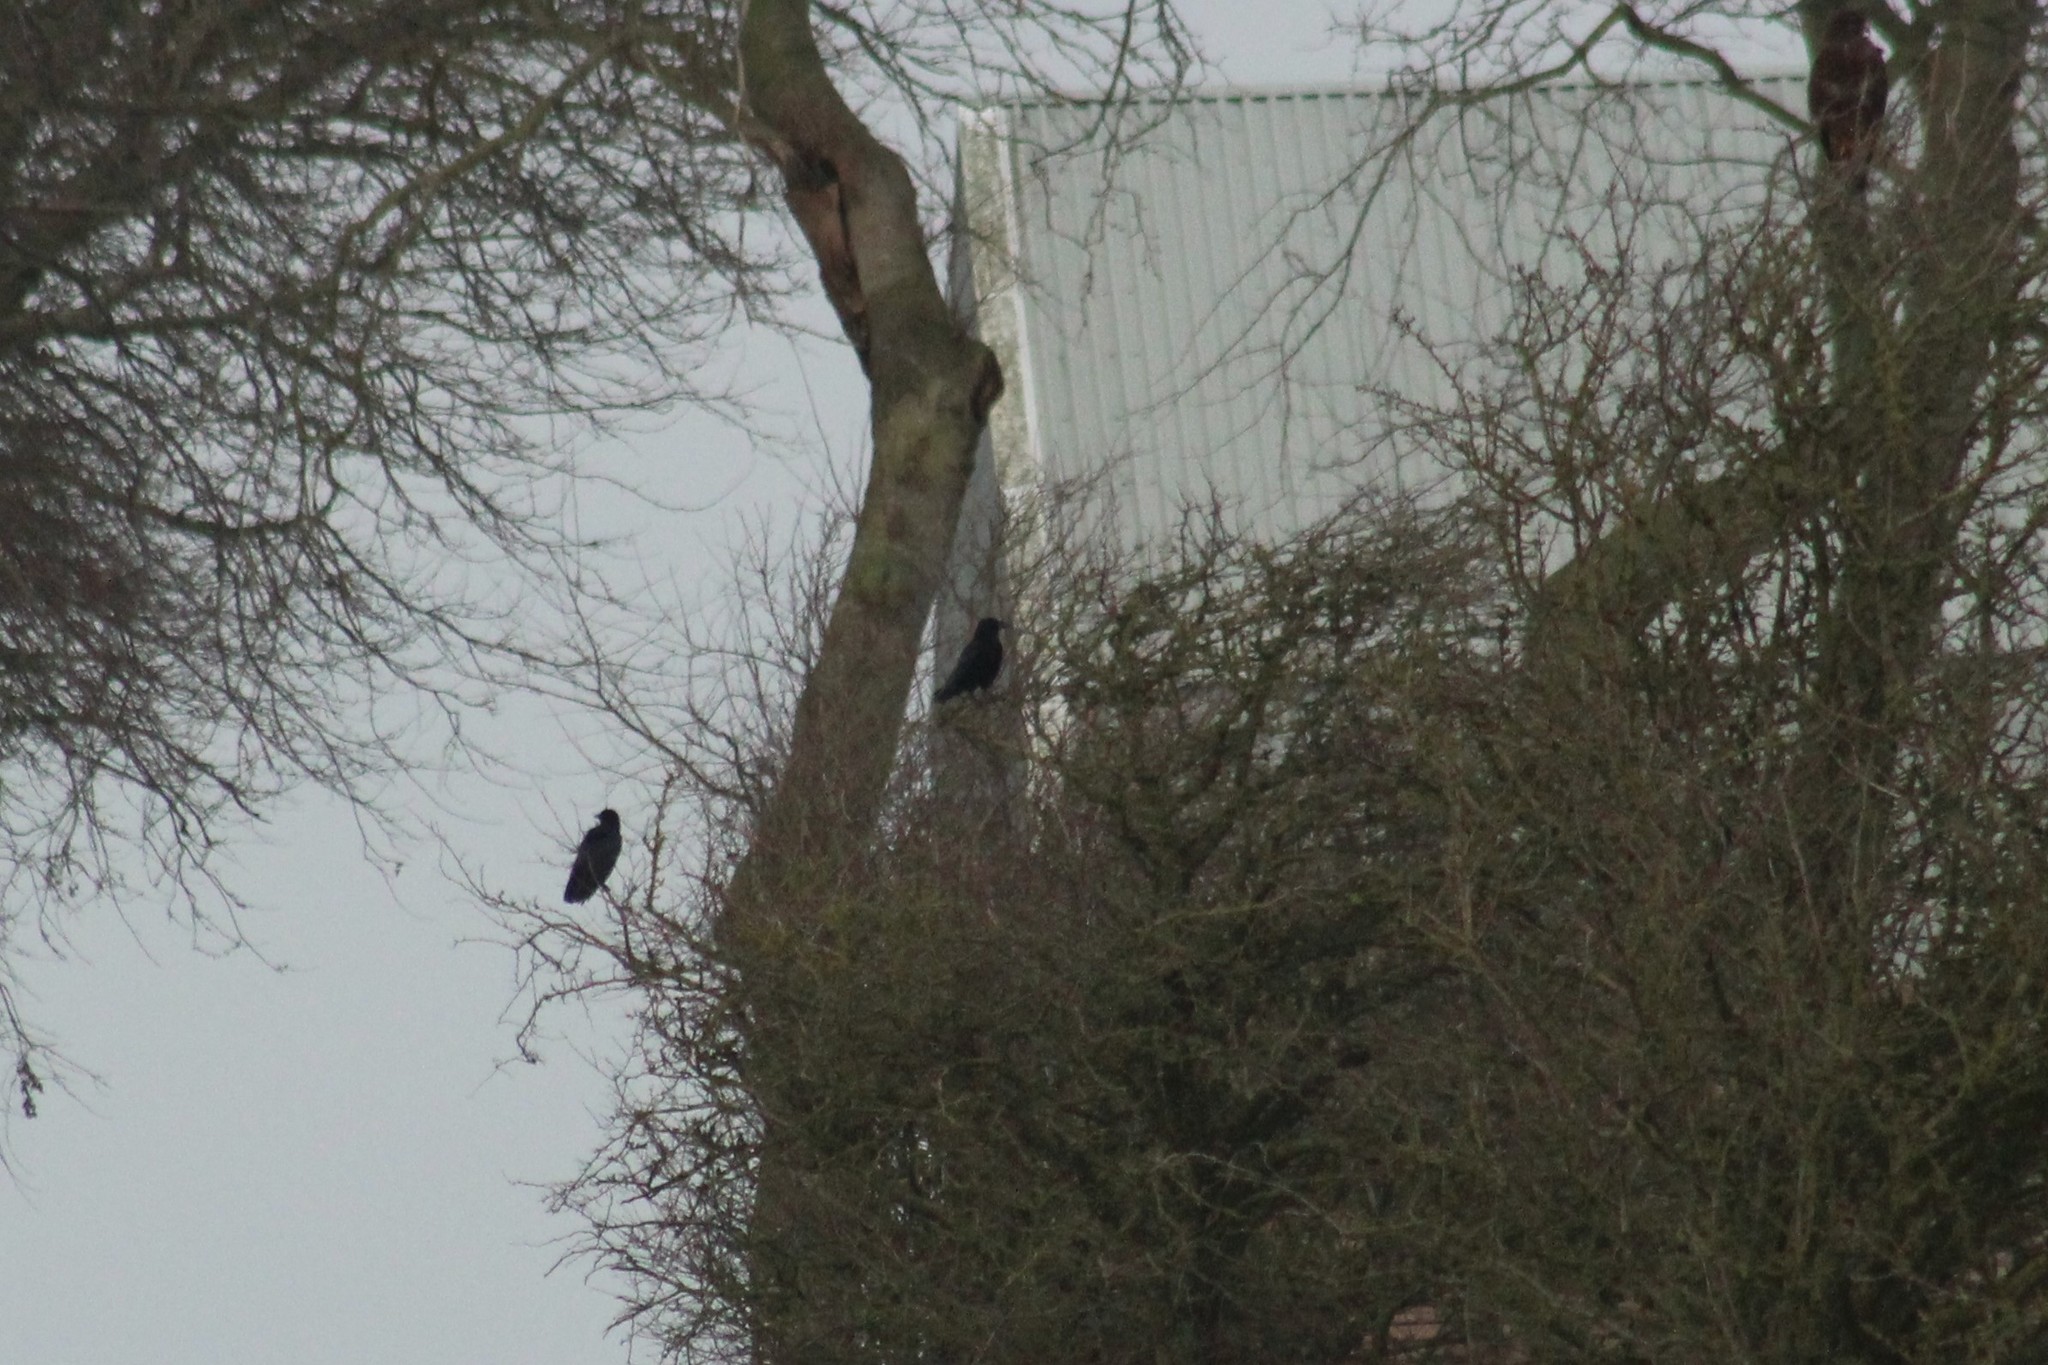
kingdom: Animalia
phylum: Chordata
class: Aves
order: Passeriformes
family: Corvidae
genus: Corvus
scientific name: Corvus corone
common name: Carrion crow
